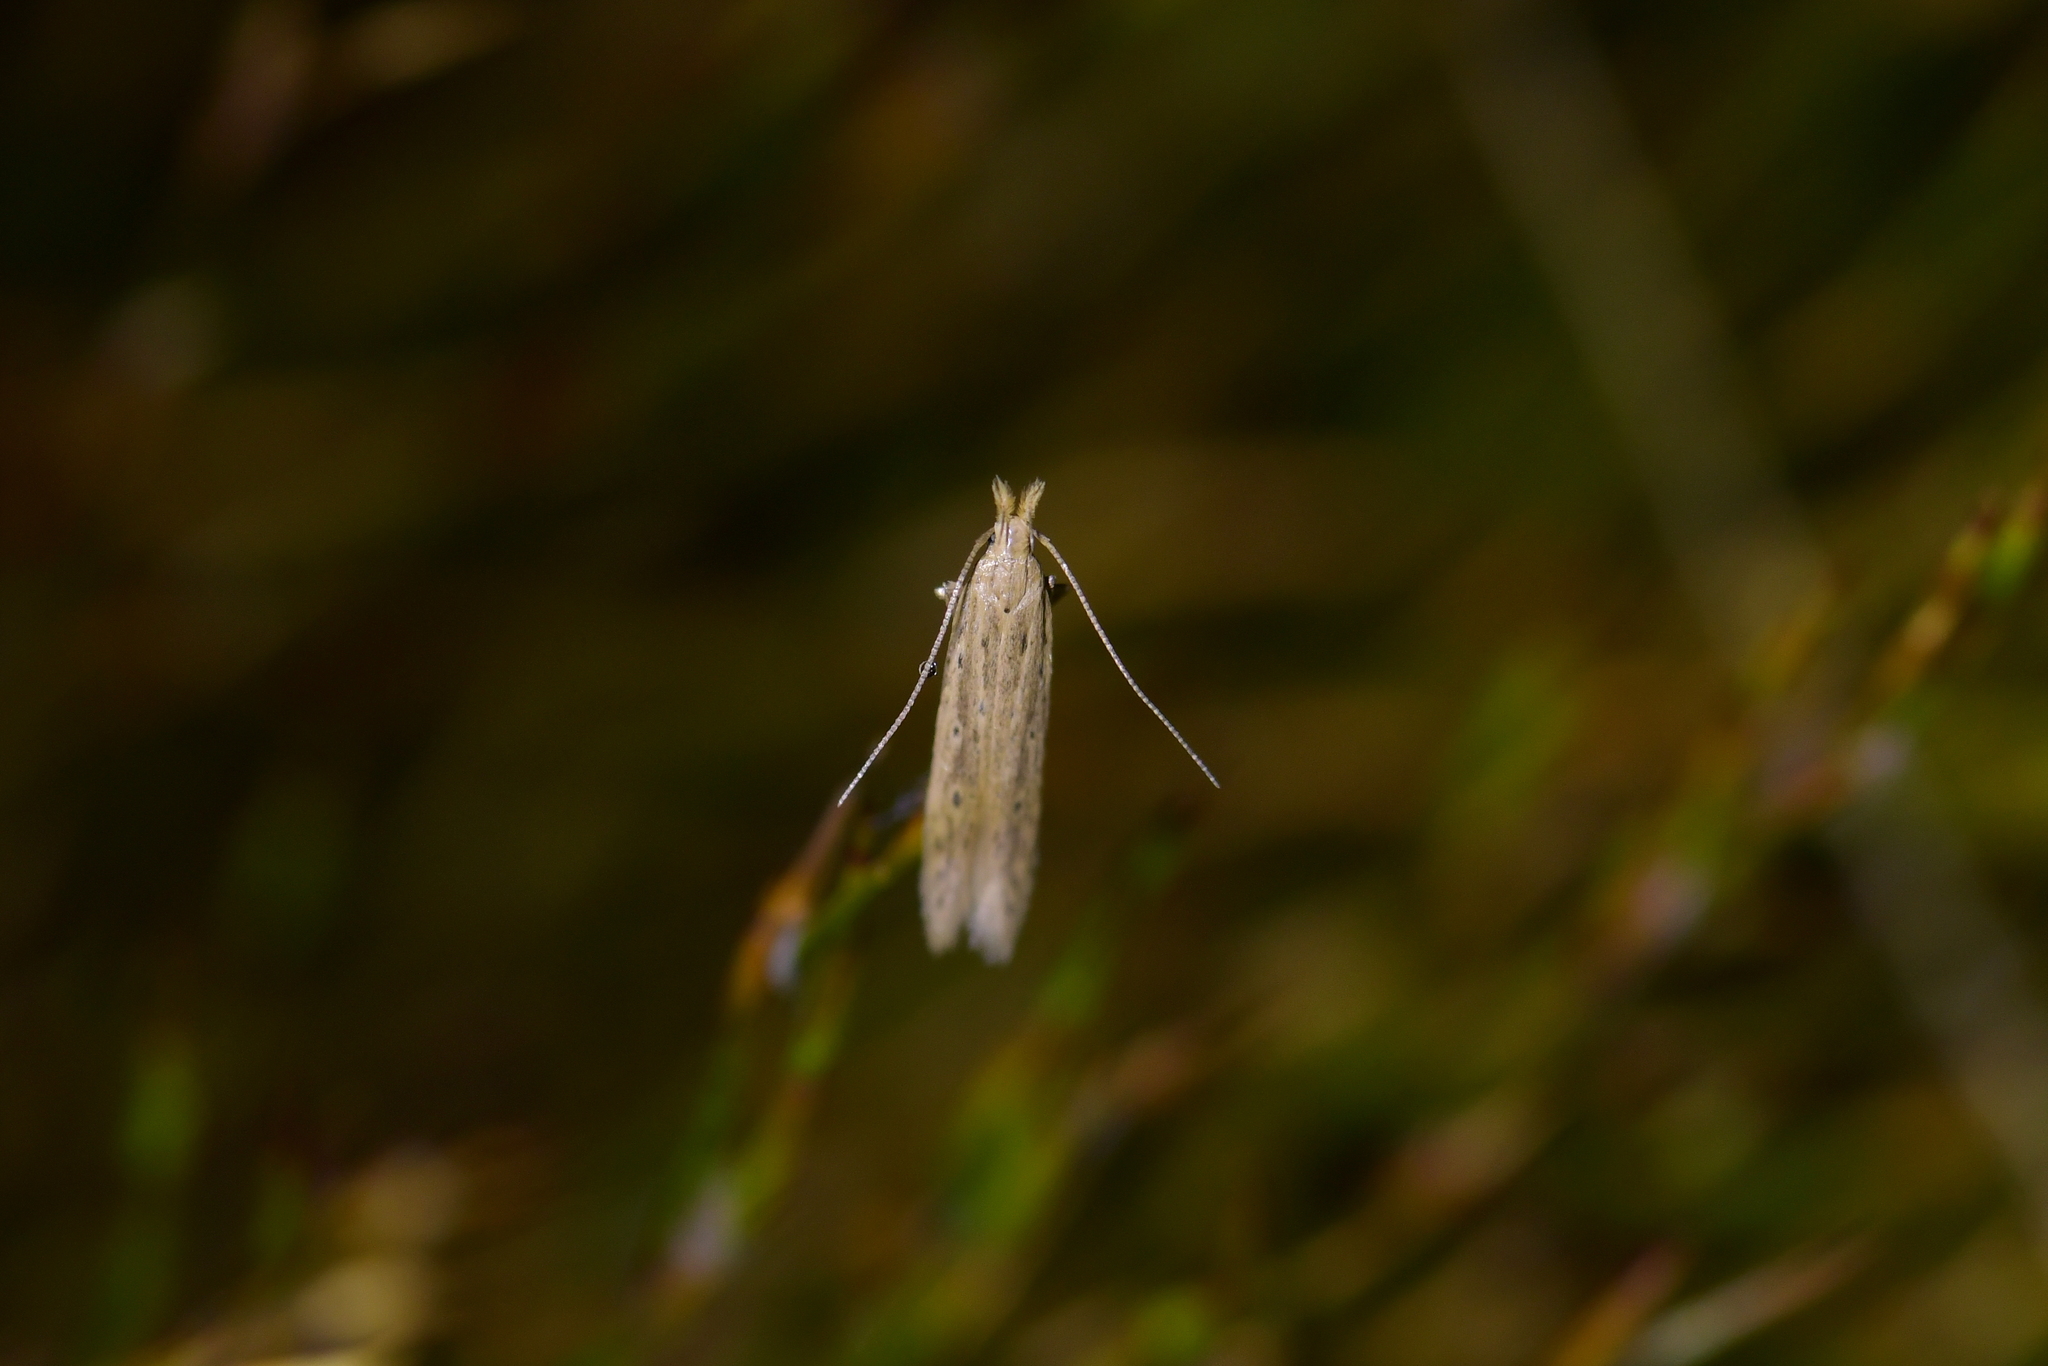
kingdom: Animalia
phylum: Arthropoda
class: Insecta
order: Lepidoptera
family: Gelechiidae
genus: Epiphthora
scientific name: Epiphthora calamogonus
